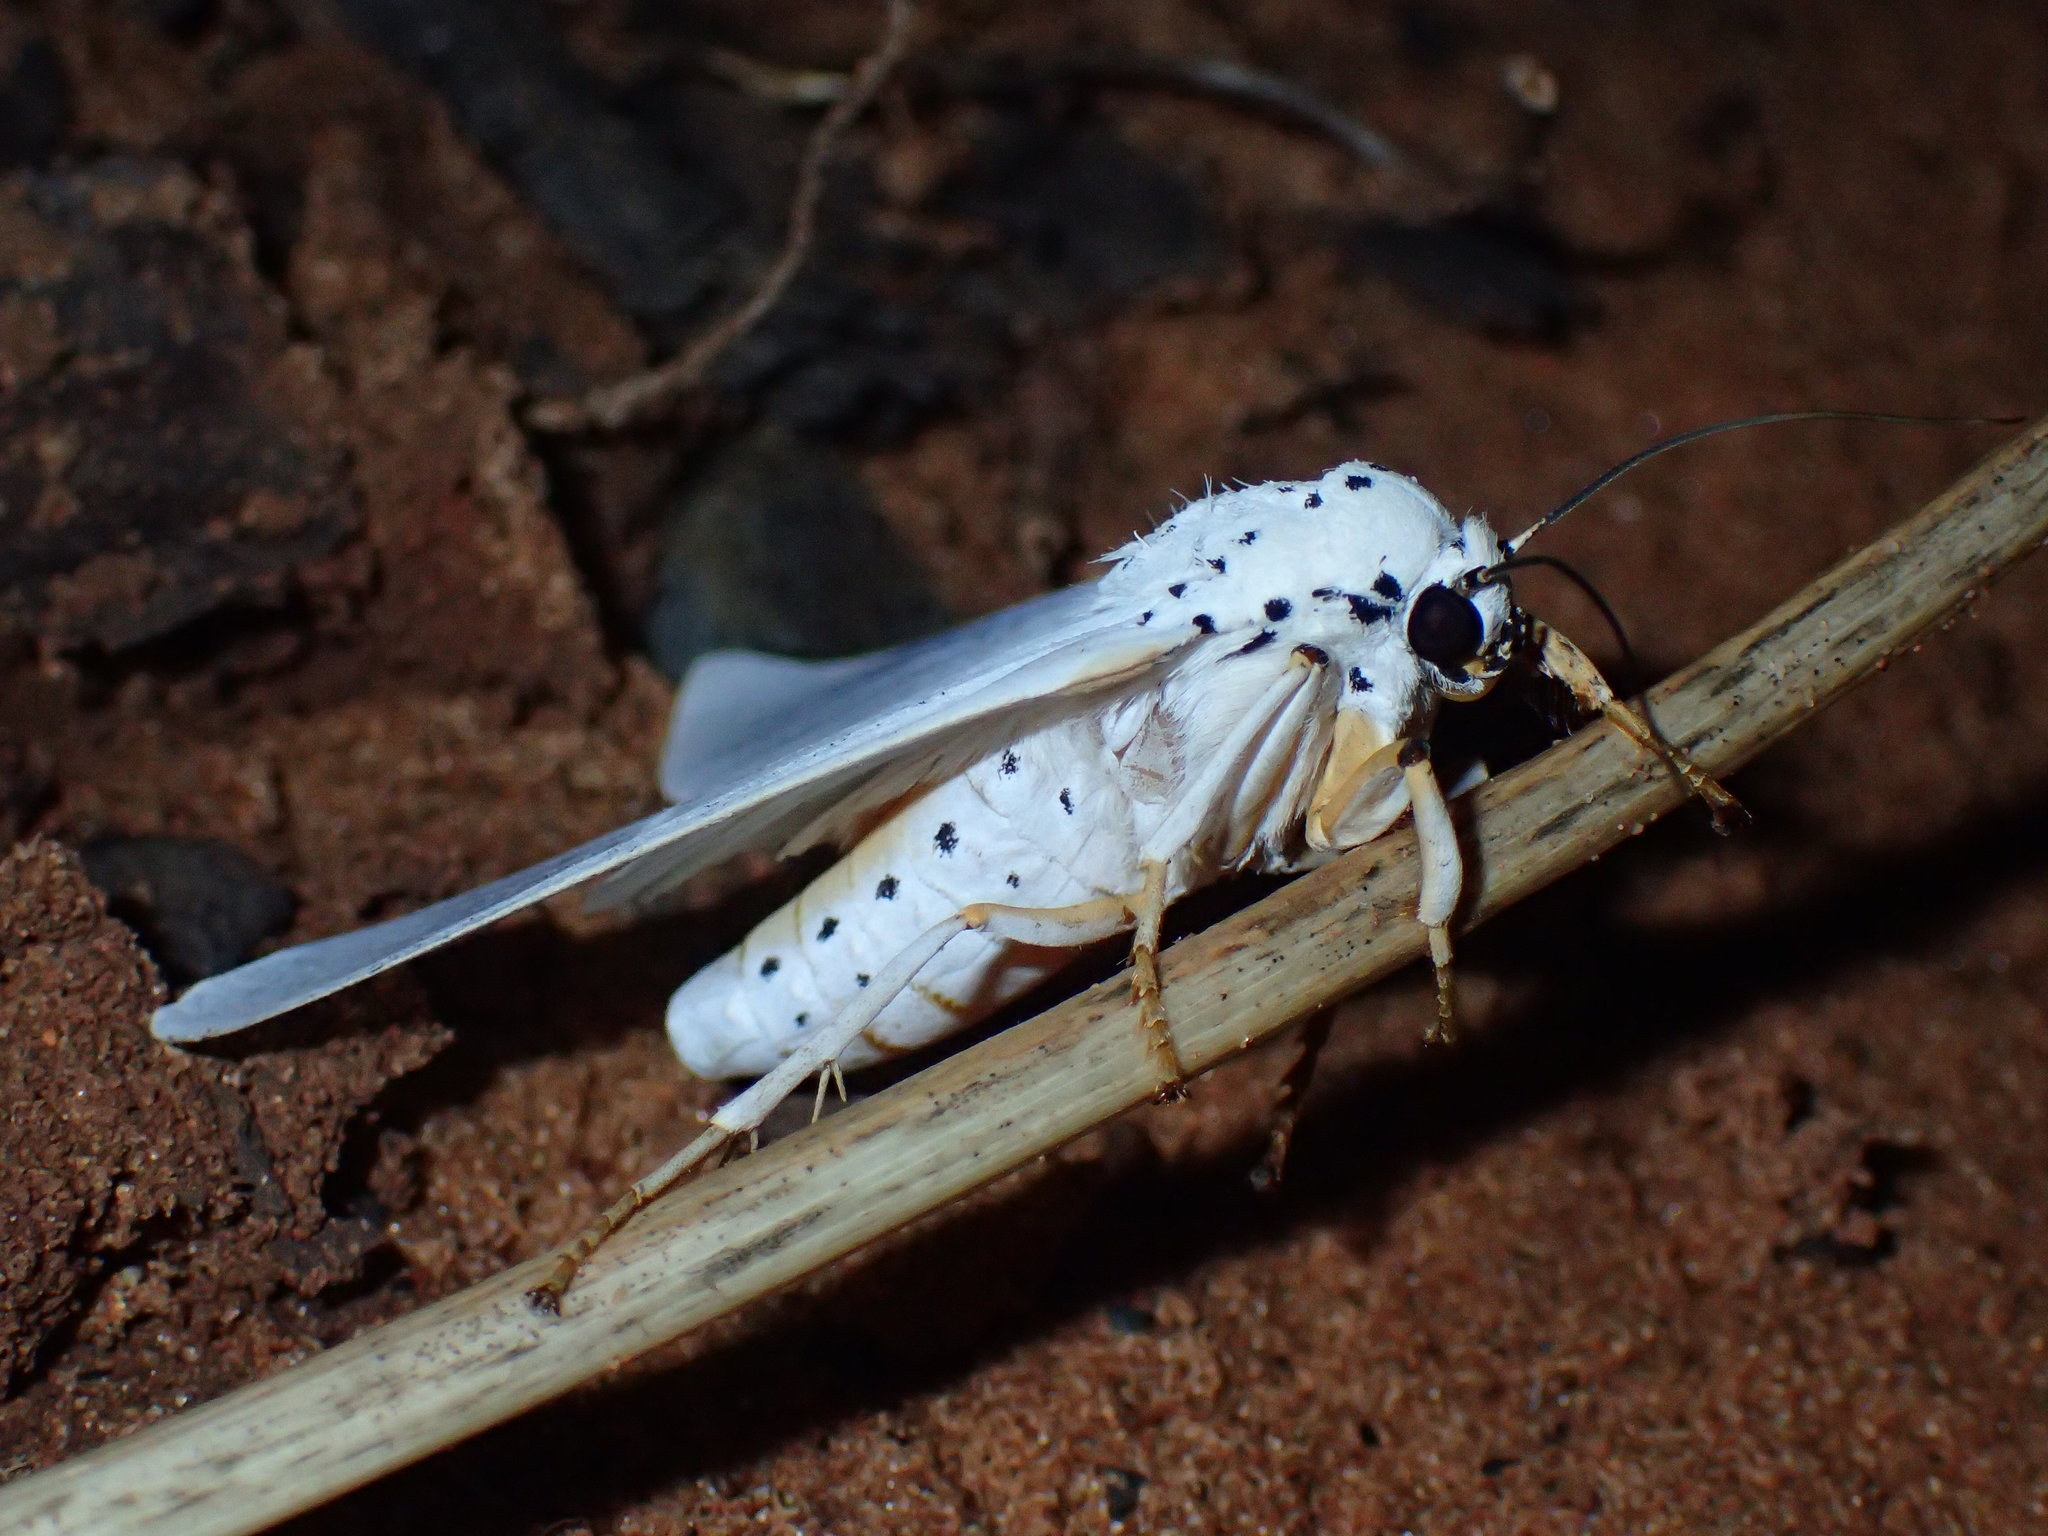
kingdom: Animalia
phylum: Arthropoda
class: Insecta
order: Lepidoptera
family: Erebidae
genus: Amerila
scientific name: Amerila bubo
